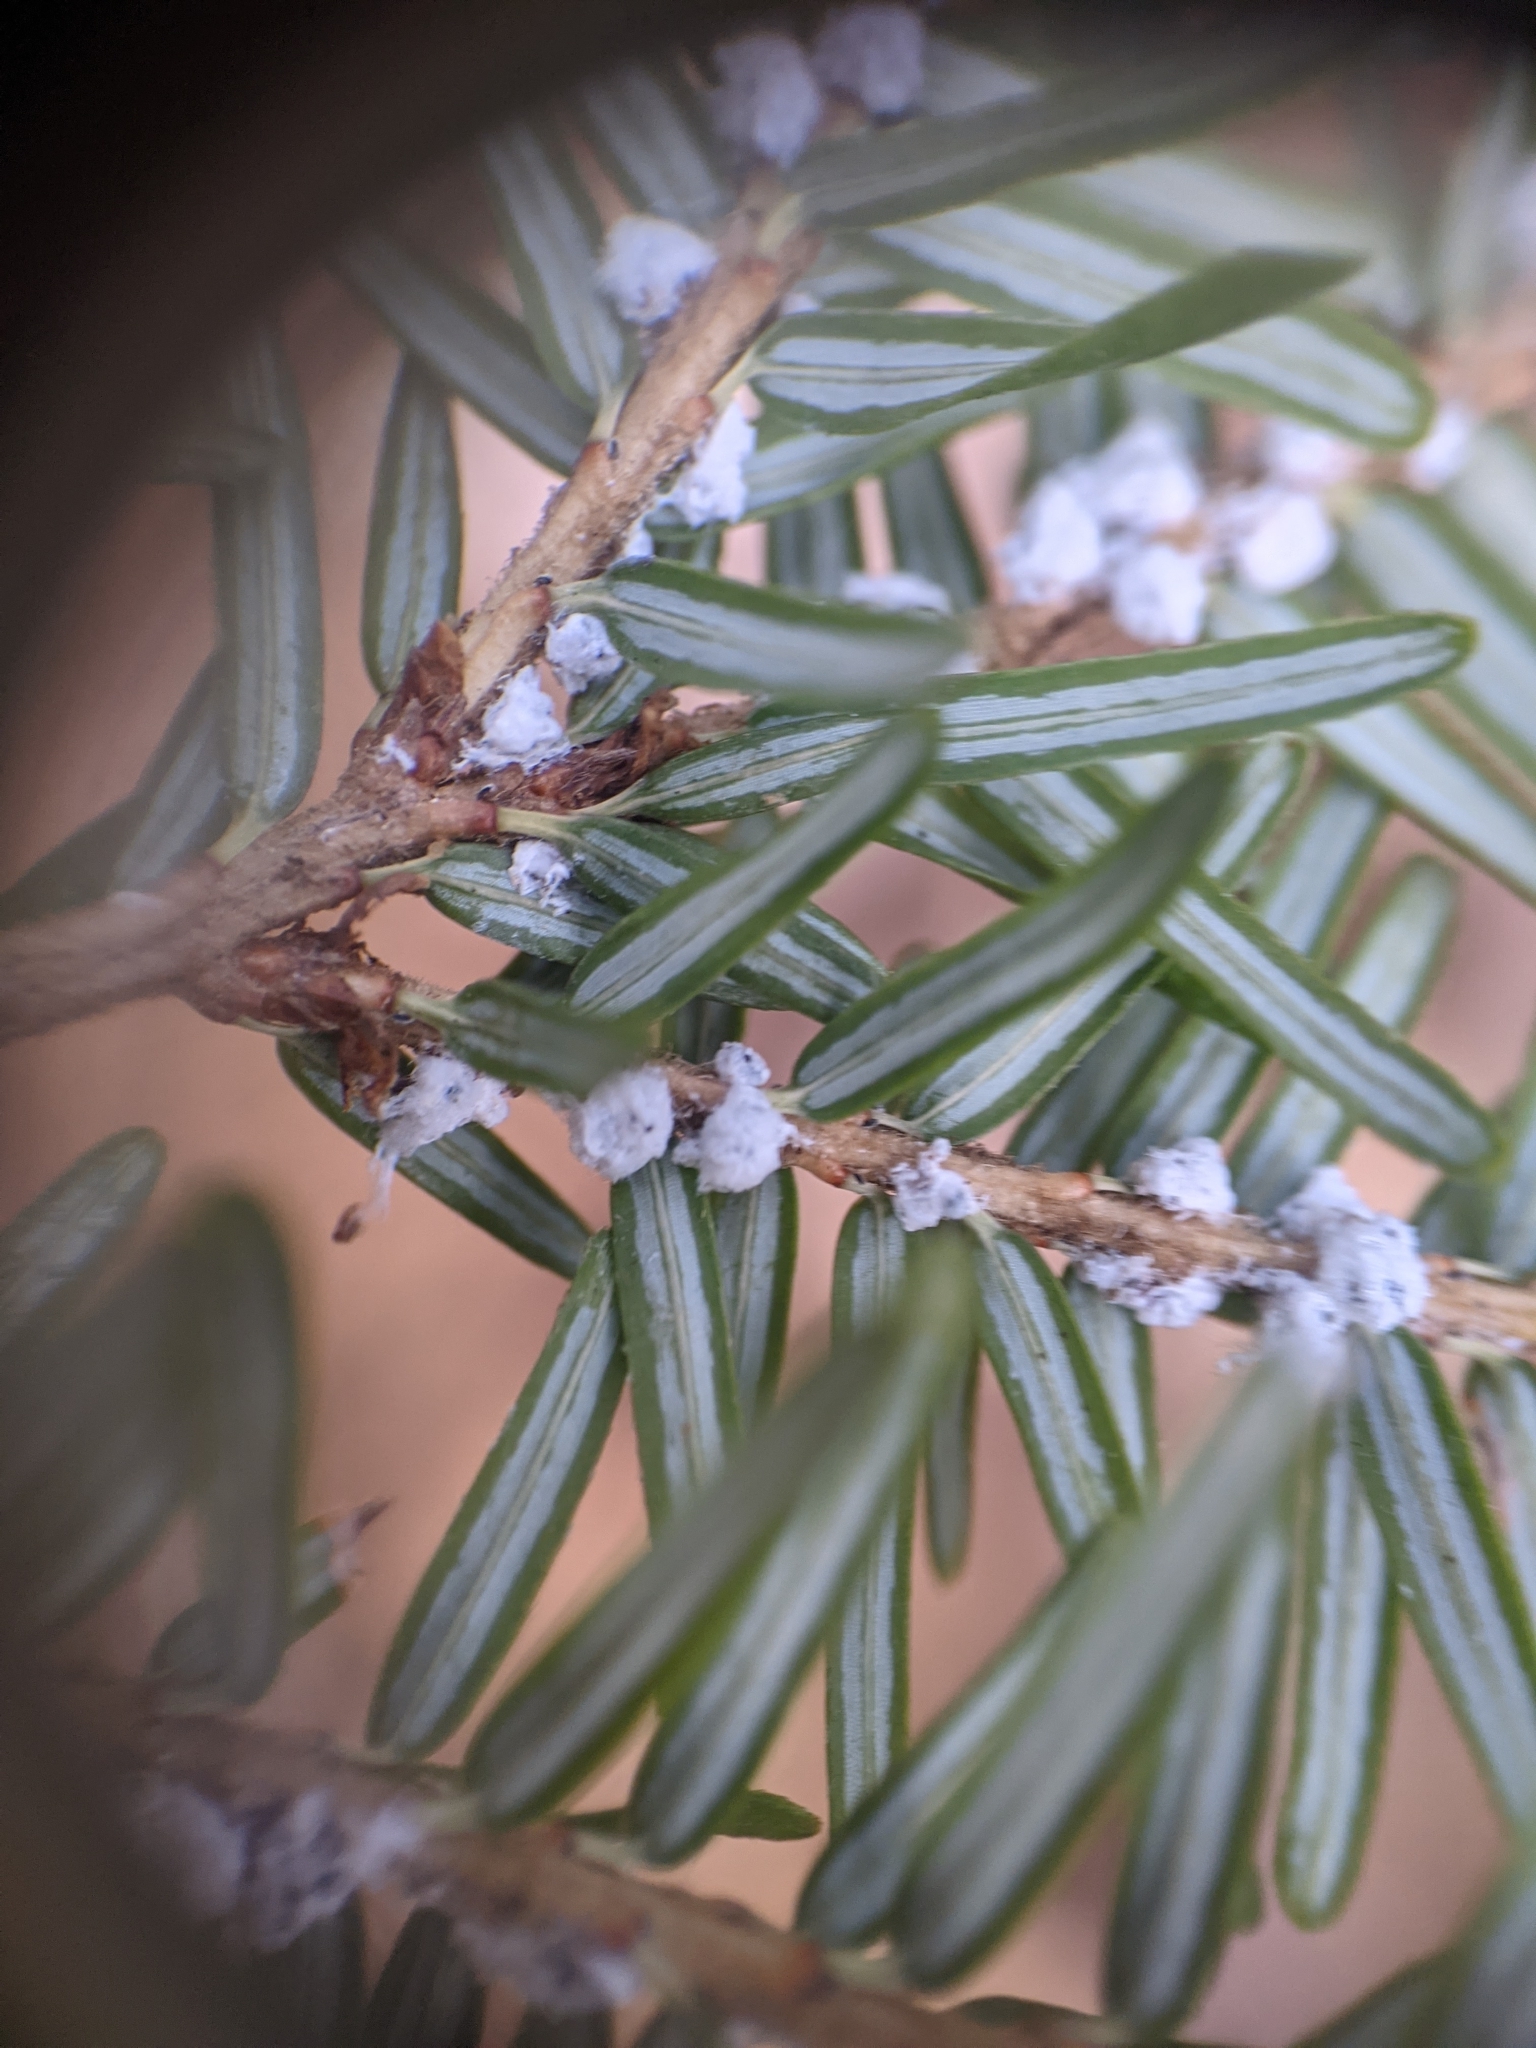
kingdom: Animalia
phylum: Arthropoda
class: Insecta
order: Hemiptera
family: Adelgidae
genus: Adelges
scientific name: Adelges tsugae
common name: Hemlock woolly adelgid
